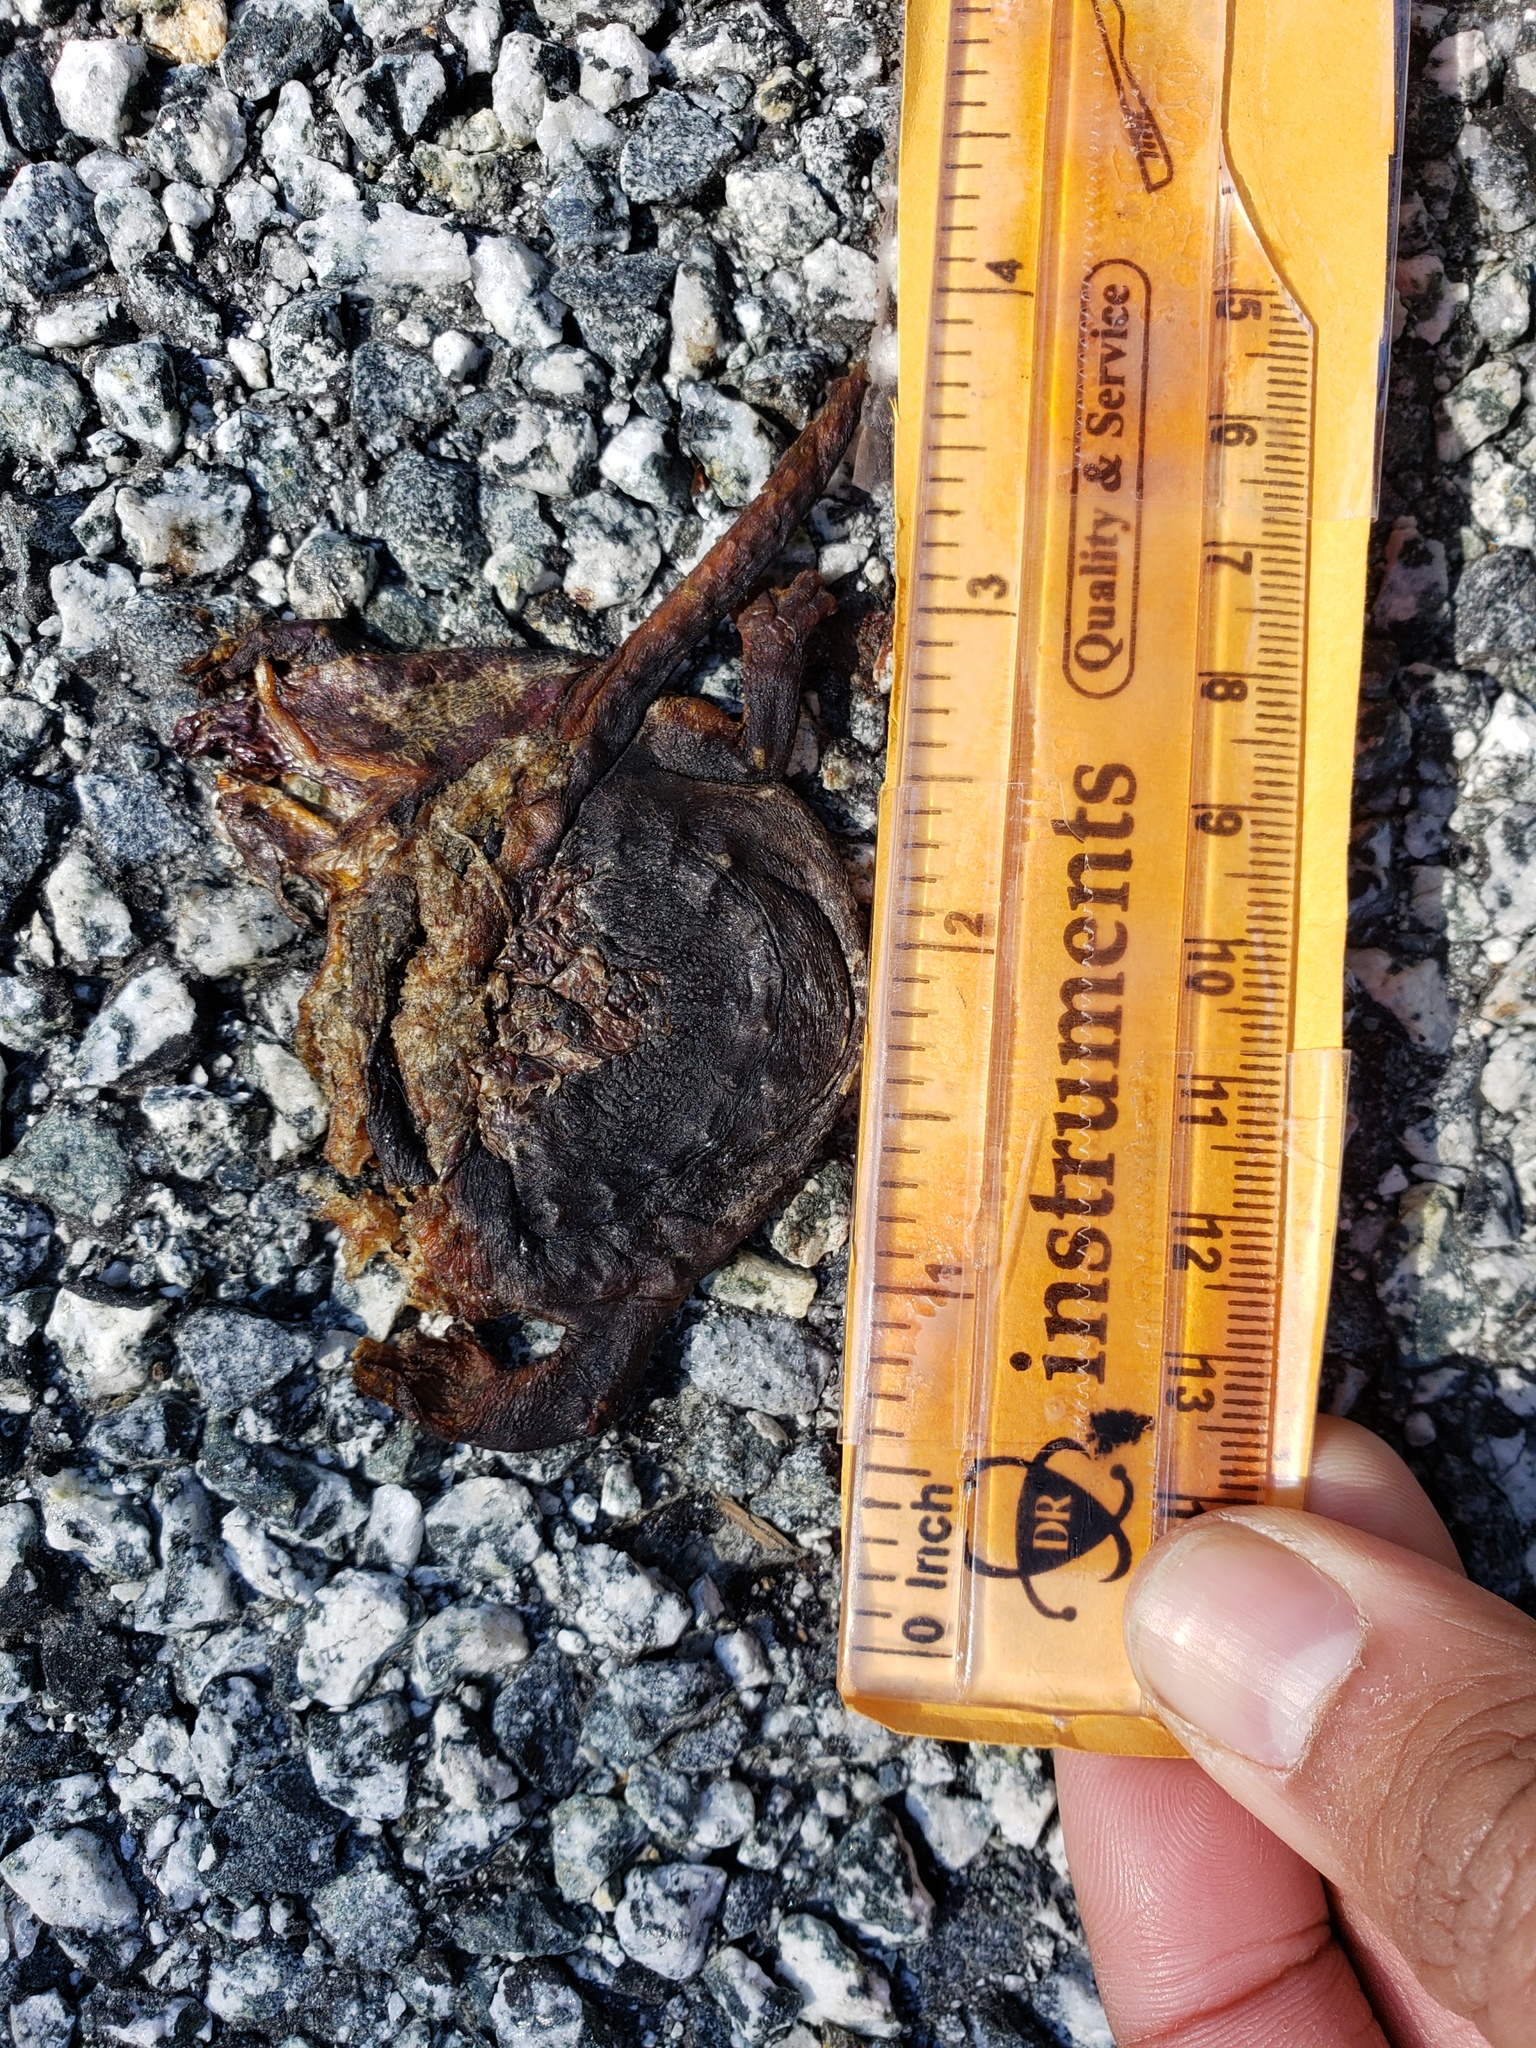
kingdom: Animalia
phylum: Chordata
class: Amphibia
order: Caudata
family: Salamandridae
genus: Taricha
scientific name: Taricha
